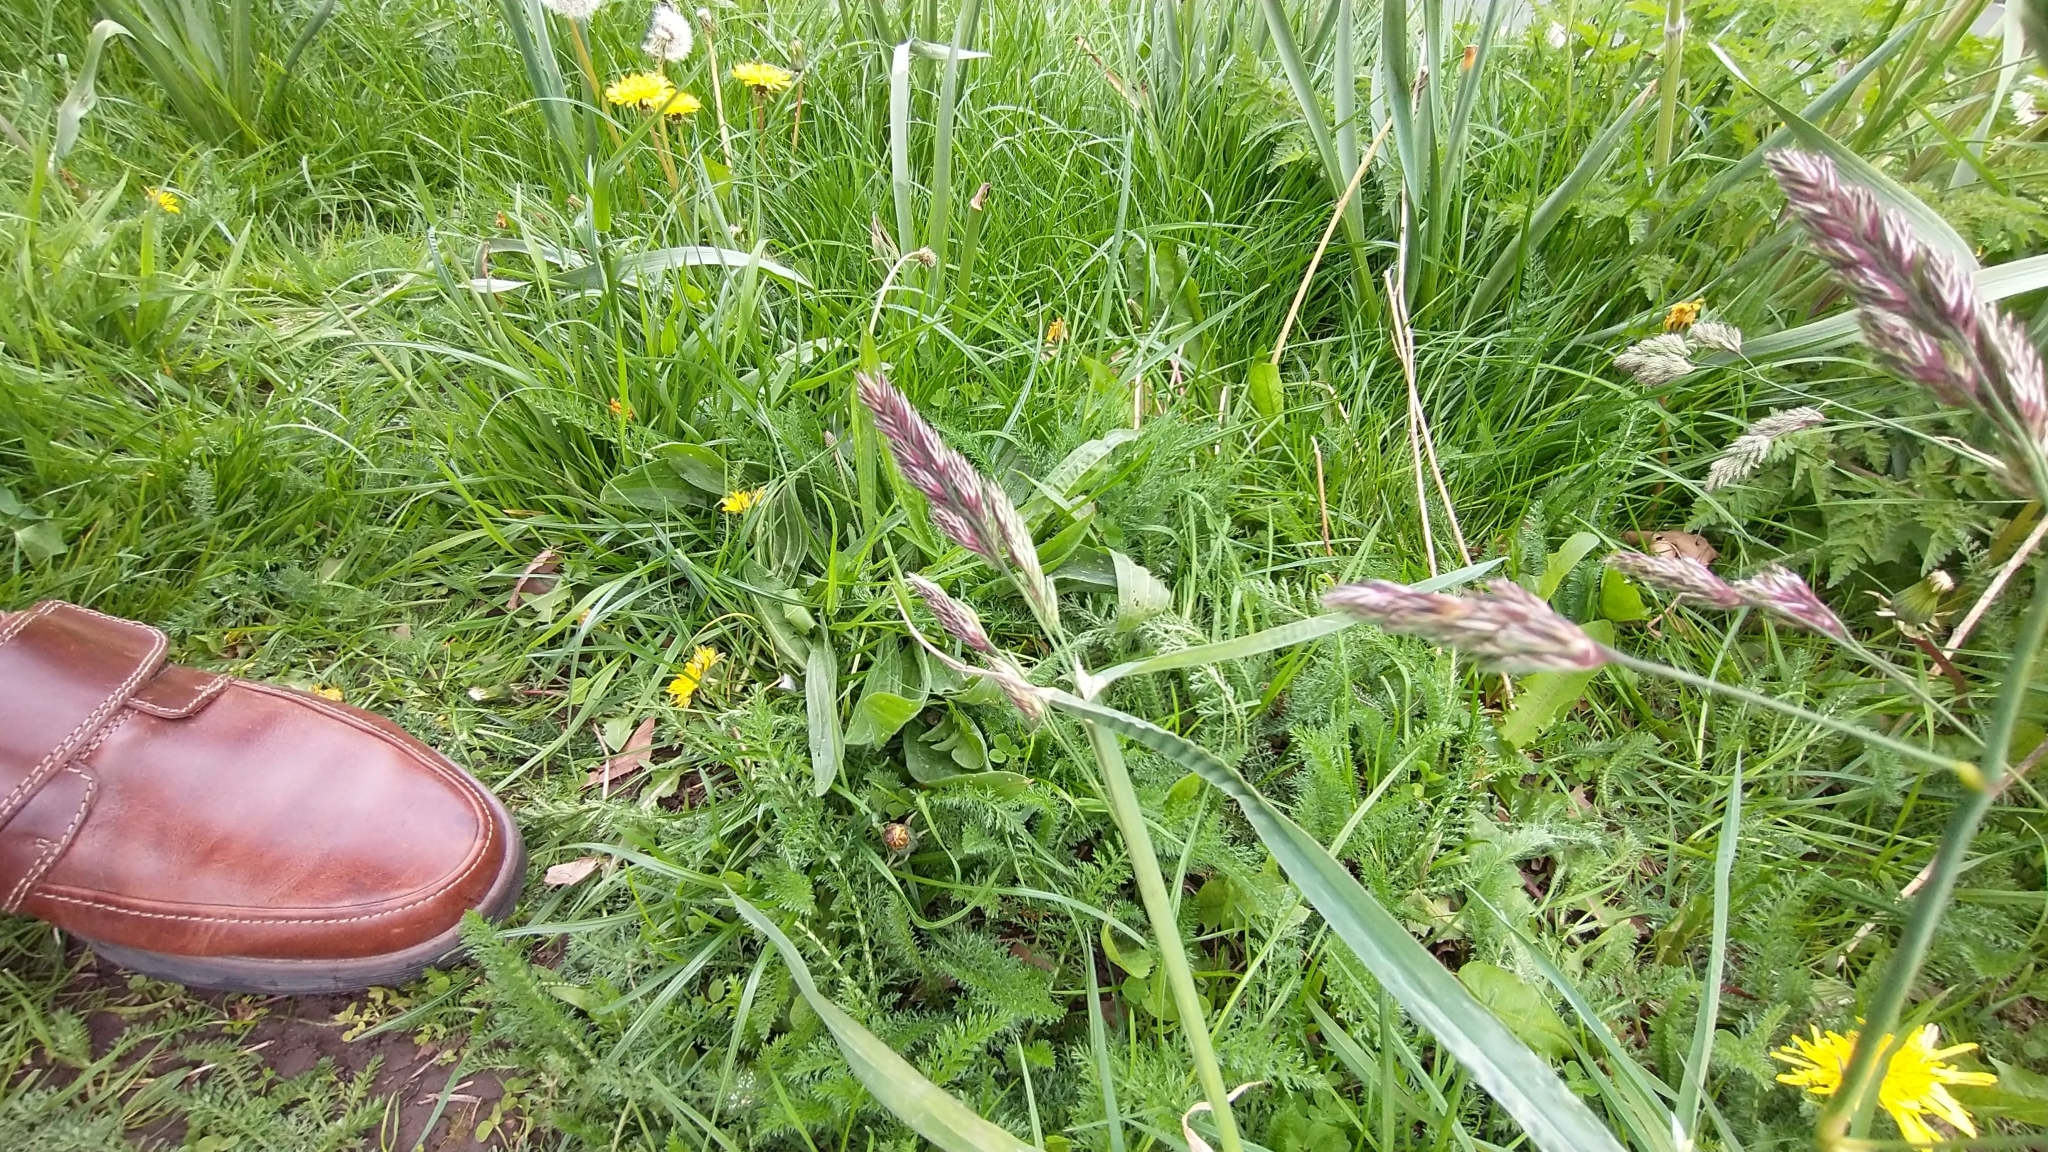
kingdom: Plantae
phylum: Tracheophyta
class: Liliopsida
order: Poales
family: Poaceae
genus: Dactylis
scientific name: Dactylis glomerata
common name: Orchardgrass
